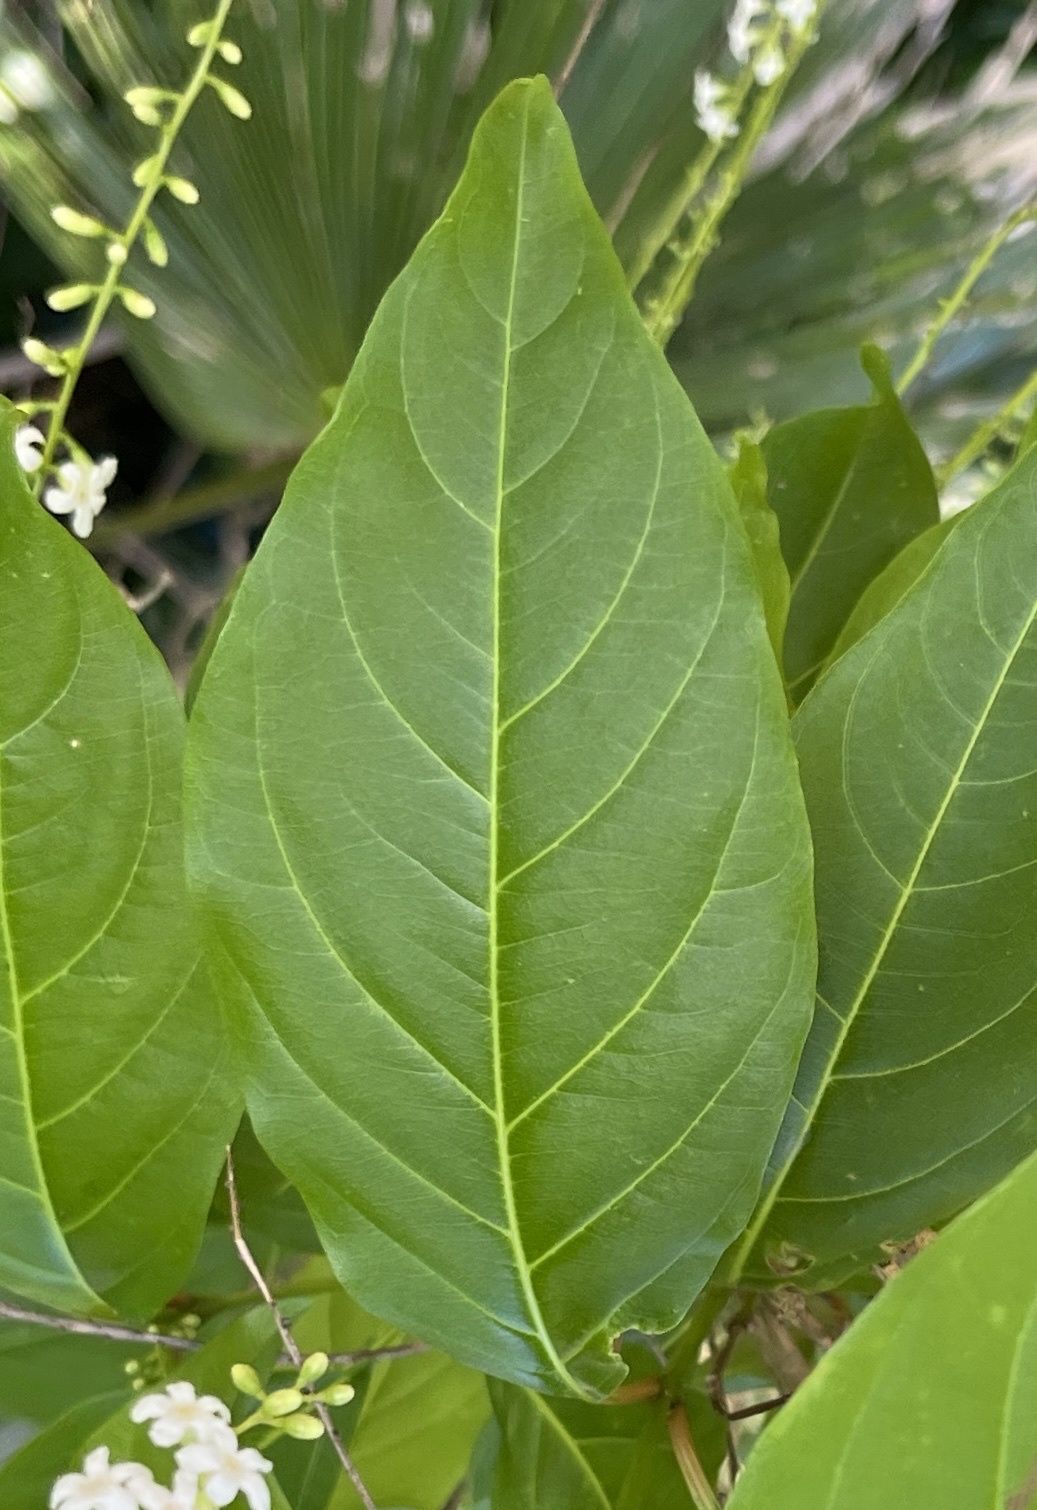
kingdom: Plantae
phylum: Tracheophyta
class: Magnoliopsida
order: Lamiales
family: Verbenaceae
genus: Citharexylum
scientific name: Citharexylum spinosum
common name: Fiddlewood
